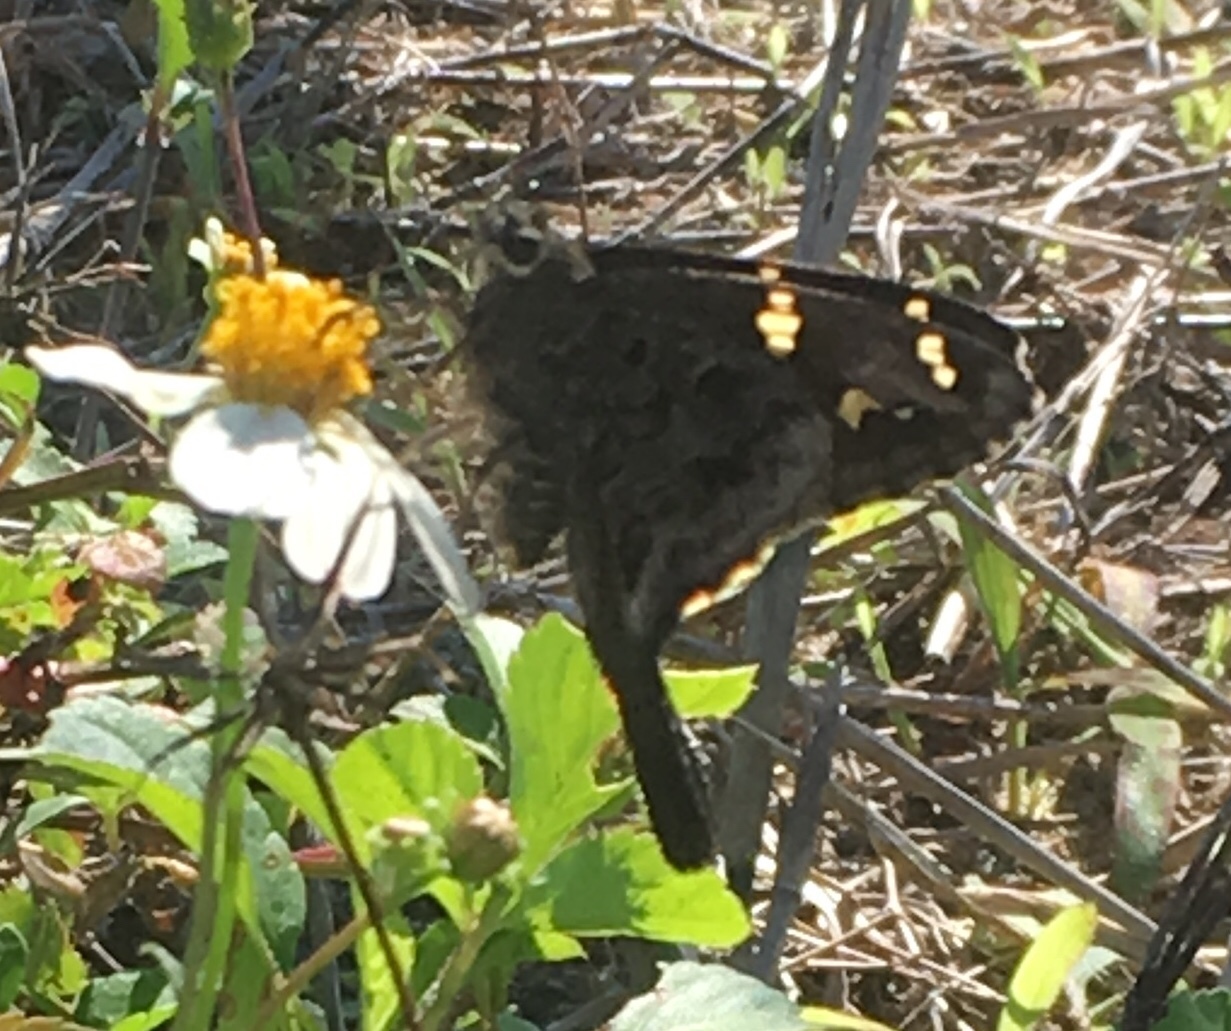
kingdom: Animalia
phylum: Arthropoda
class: Insecta
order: Lepidoptera
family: Hesperiidae
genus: Thorybes
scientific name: Thorybes
